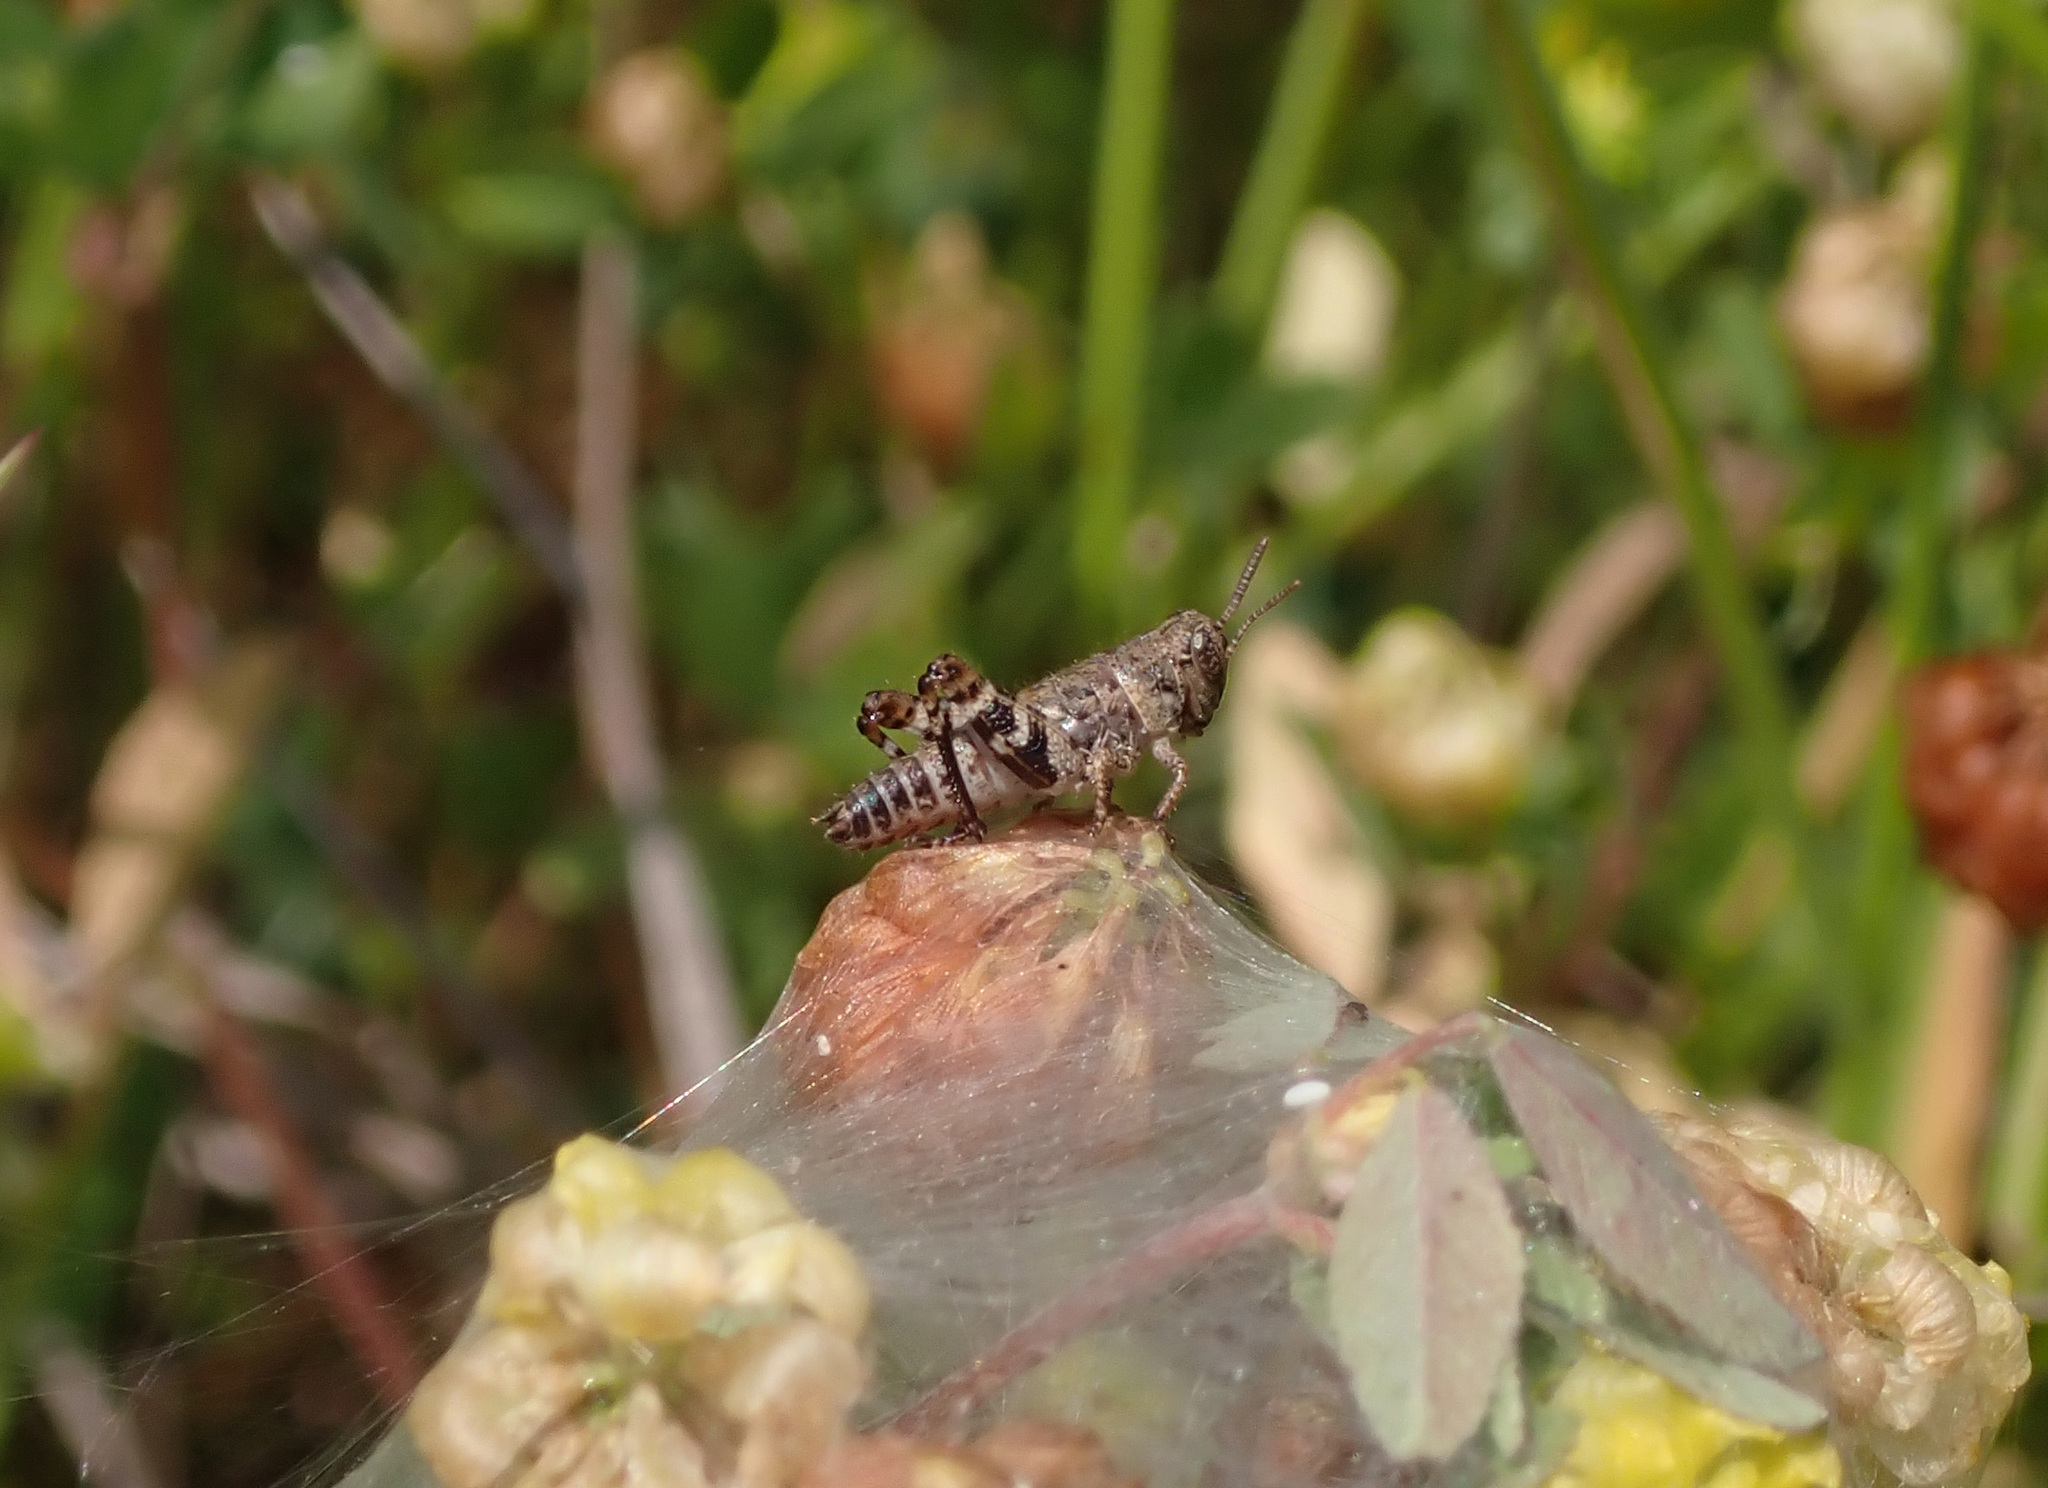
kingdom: Animalia
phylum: Arthropoda
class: Insecta
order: Orthoptera
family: Acrididae
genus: Calliptamus
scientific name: Calliptamus italicus
